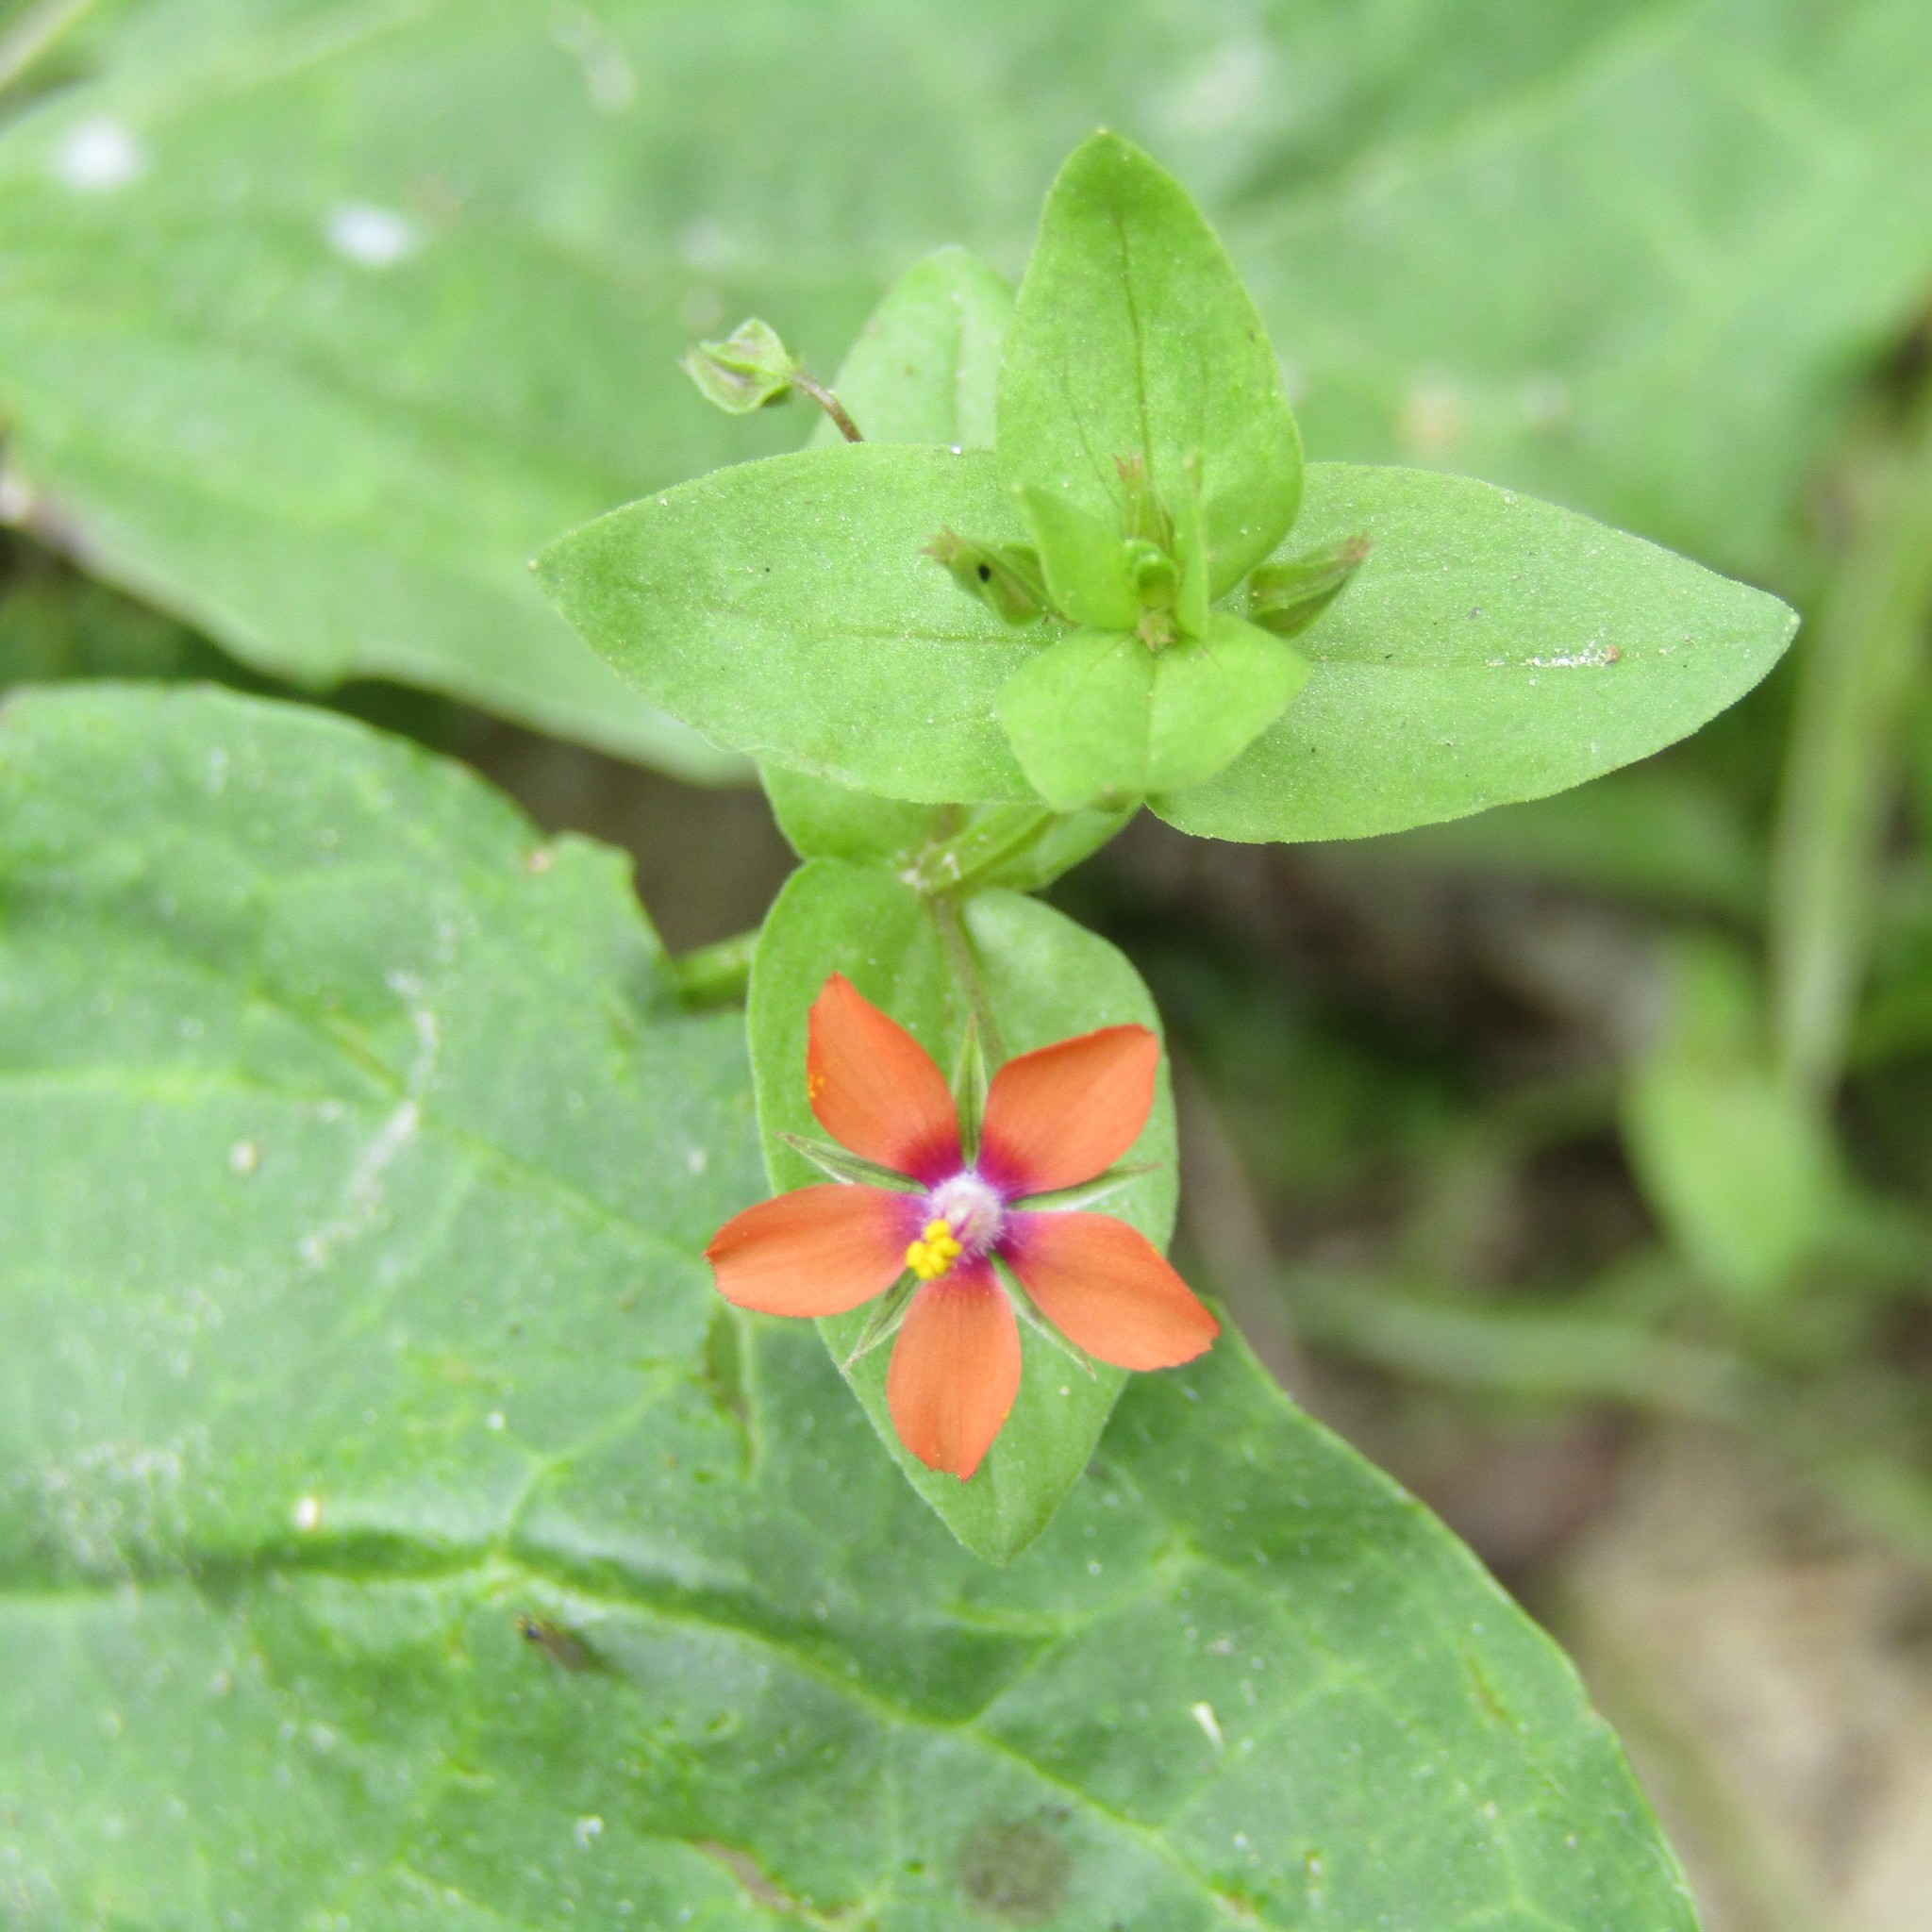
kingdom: Plantae
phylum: Tracheophyta
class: Magnoliopsida
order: Ericales
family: Primulaceae
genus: Lysimachia
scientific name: Lysimachia arvensis
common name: Scarlet pimpernel
